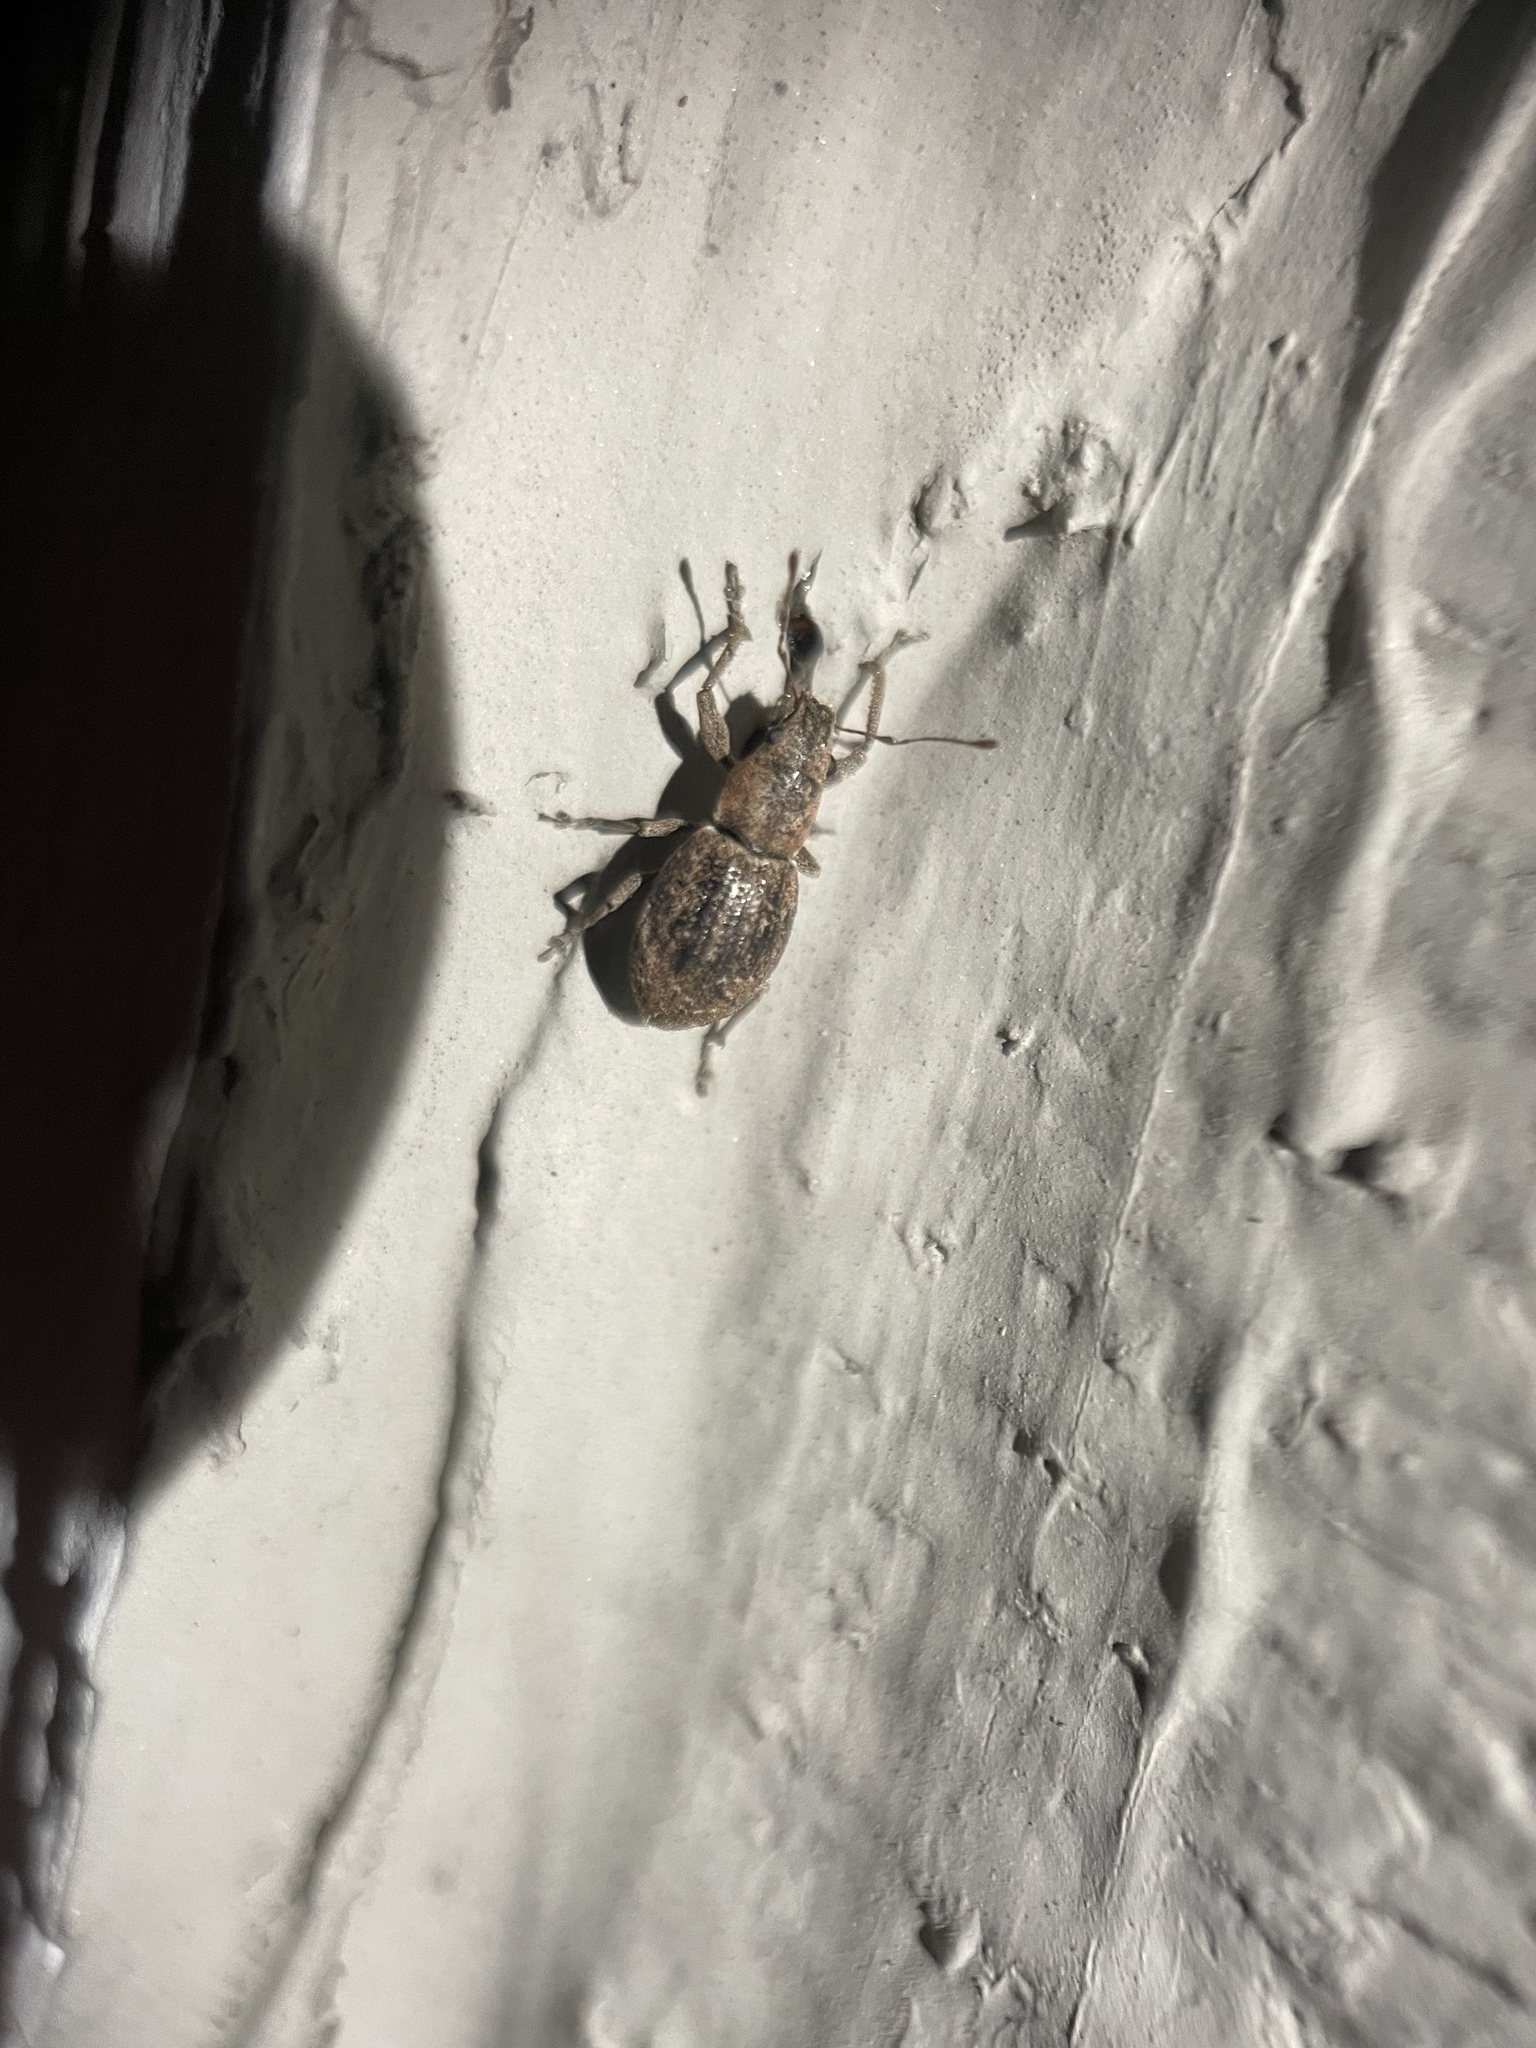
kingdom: Animalia
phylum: Arthropoda
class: Insecta
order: Coleoptera
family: Curculionidae
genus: Naupactus
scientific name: Naupactus cervinus
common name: Fuller rose beetle
